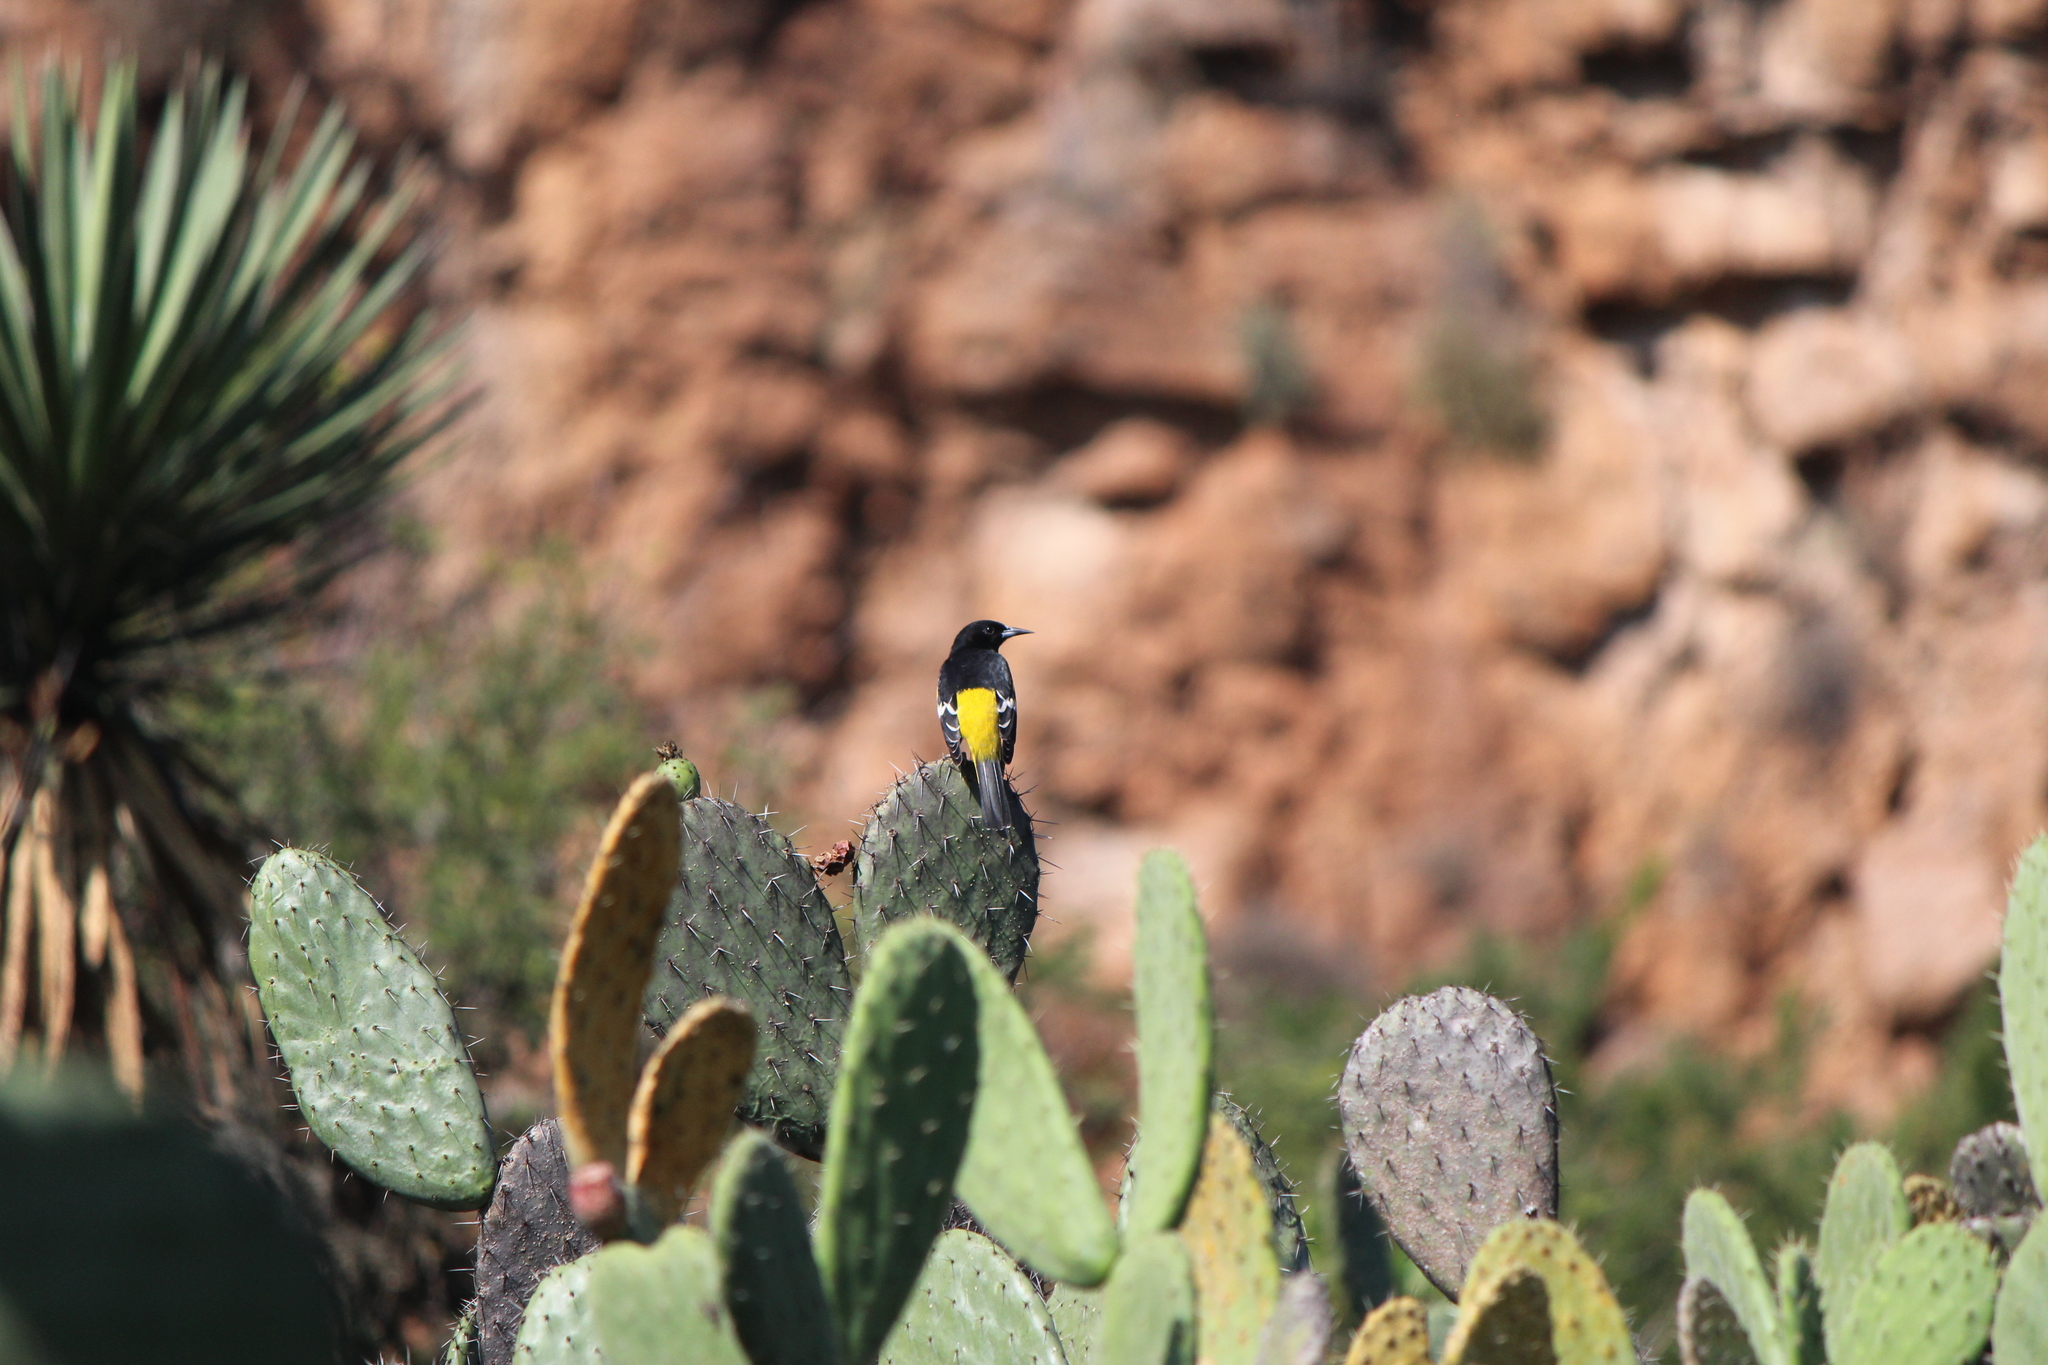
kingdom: Animalia
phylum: Chordata
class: Aves
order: Passeriformes
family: Icteridae
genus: Icterus
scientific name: Icterus parisorum
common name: Scott's oriole
